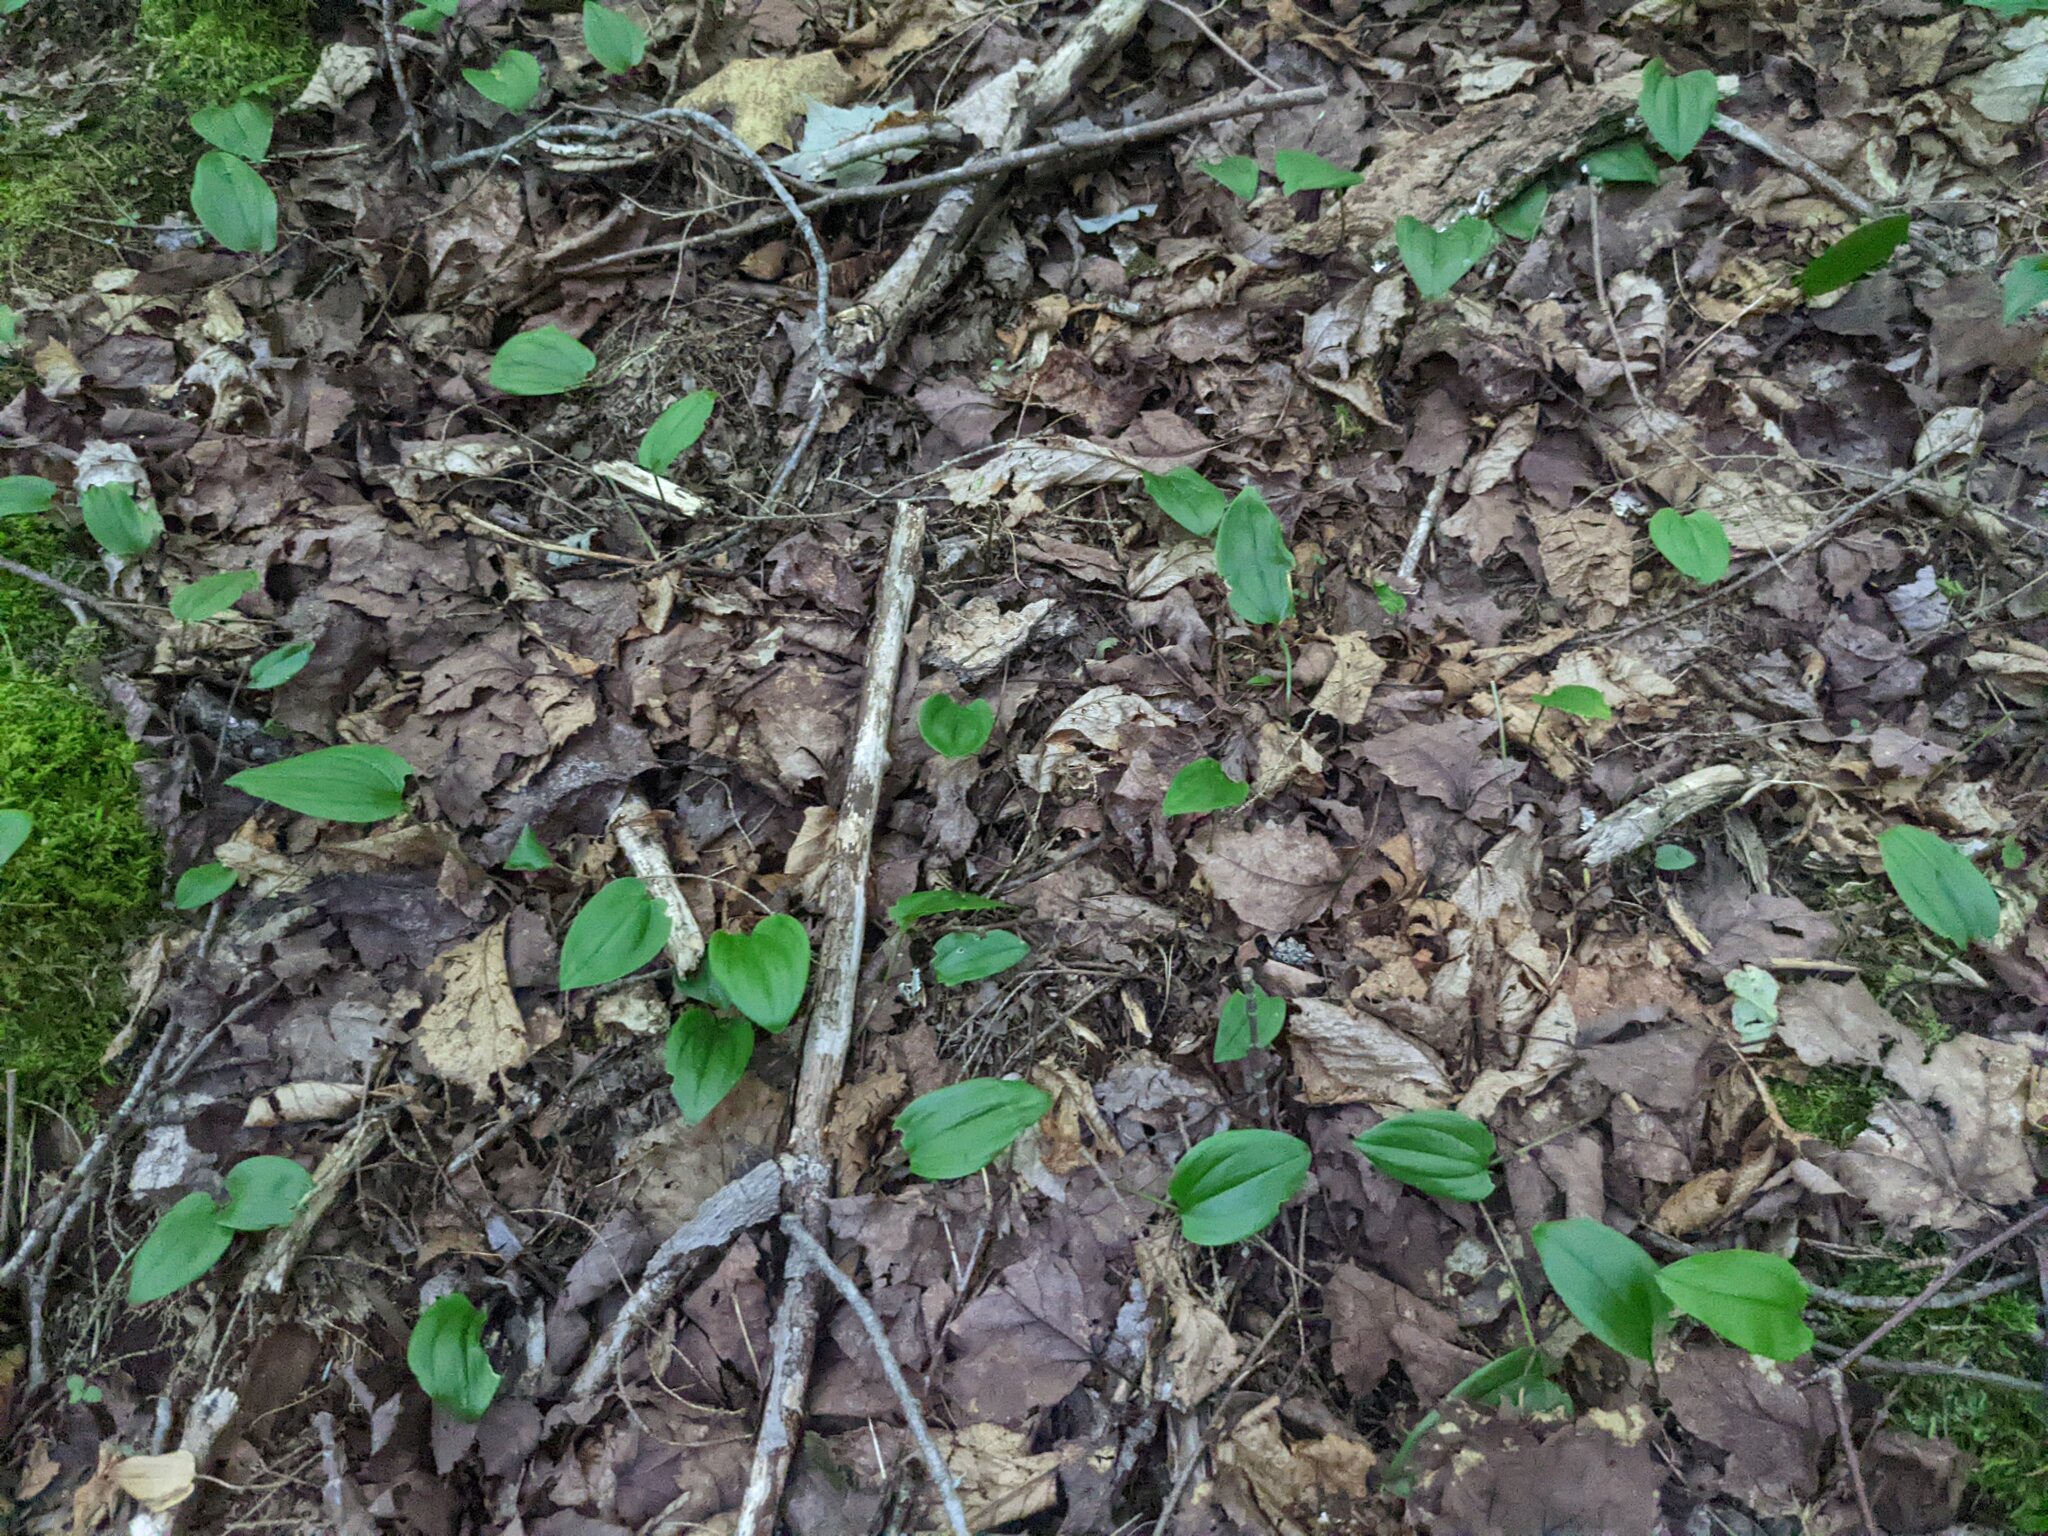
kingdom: Plantae
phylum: Tracheophyta
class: Liliopsida
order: Asparagales
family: Asparagaceae
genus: Maianthemum
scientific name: Maianthemum canadense
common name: False lily-of-the-valley
